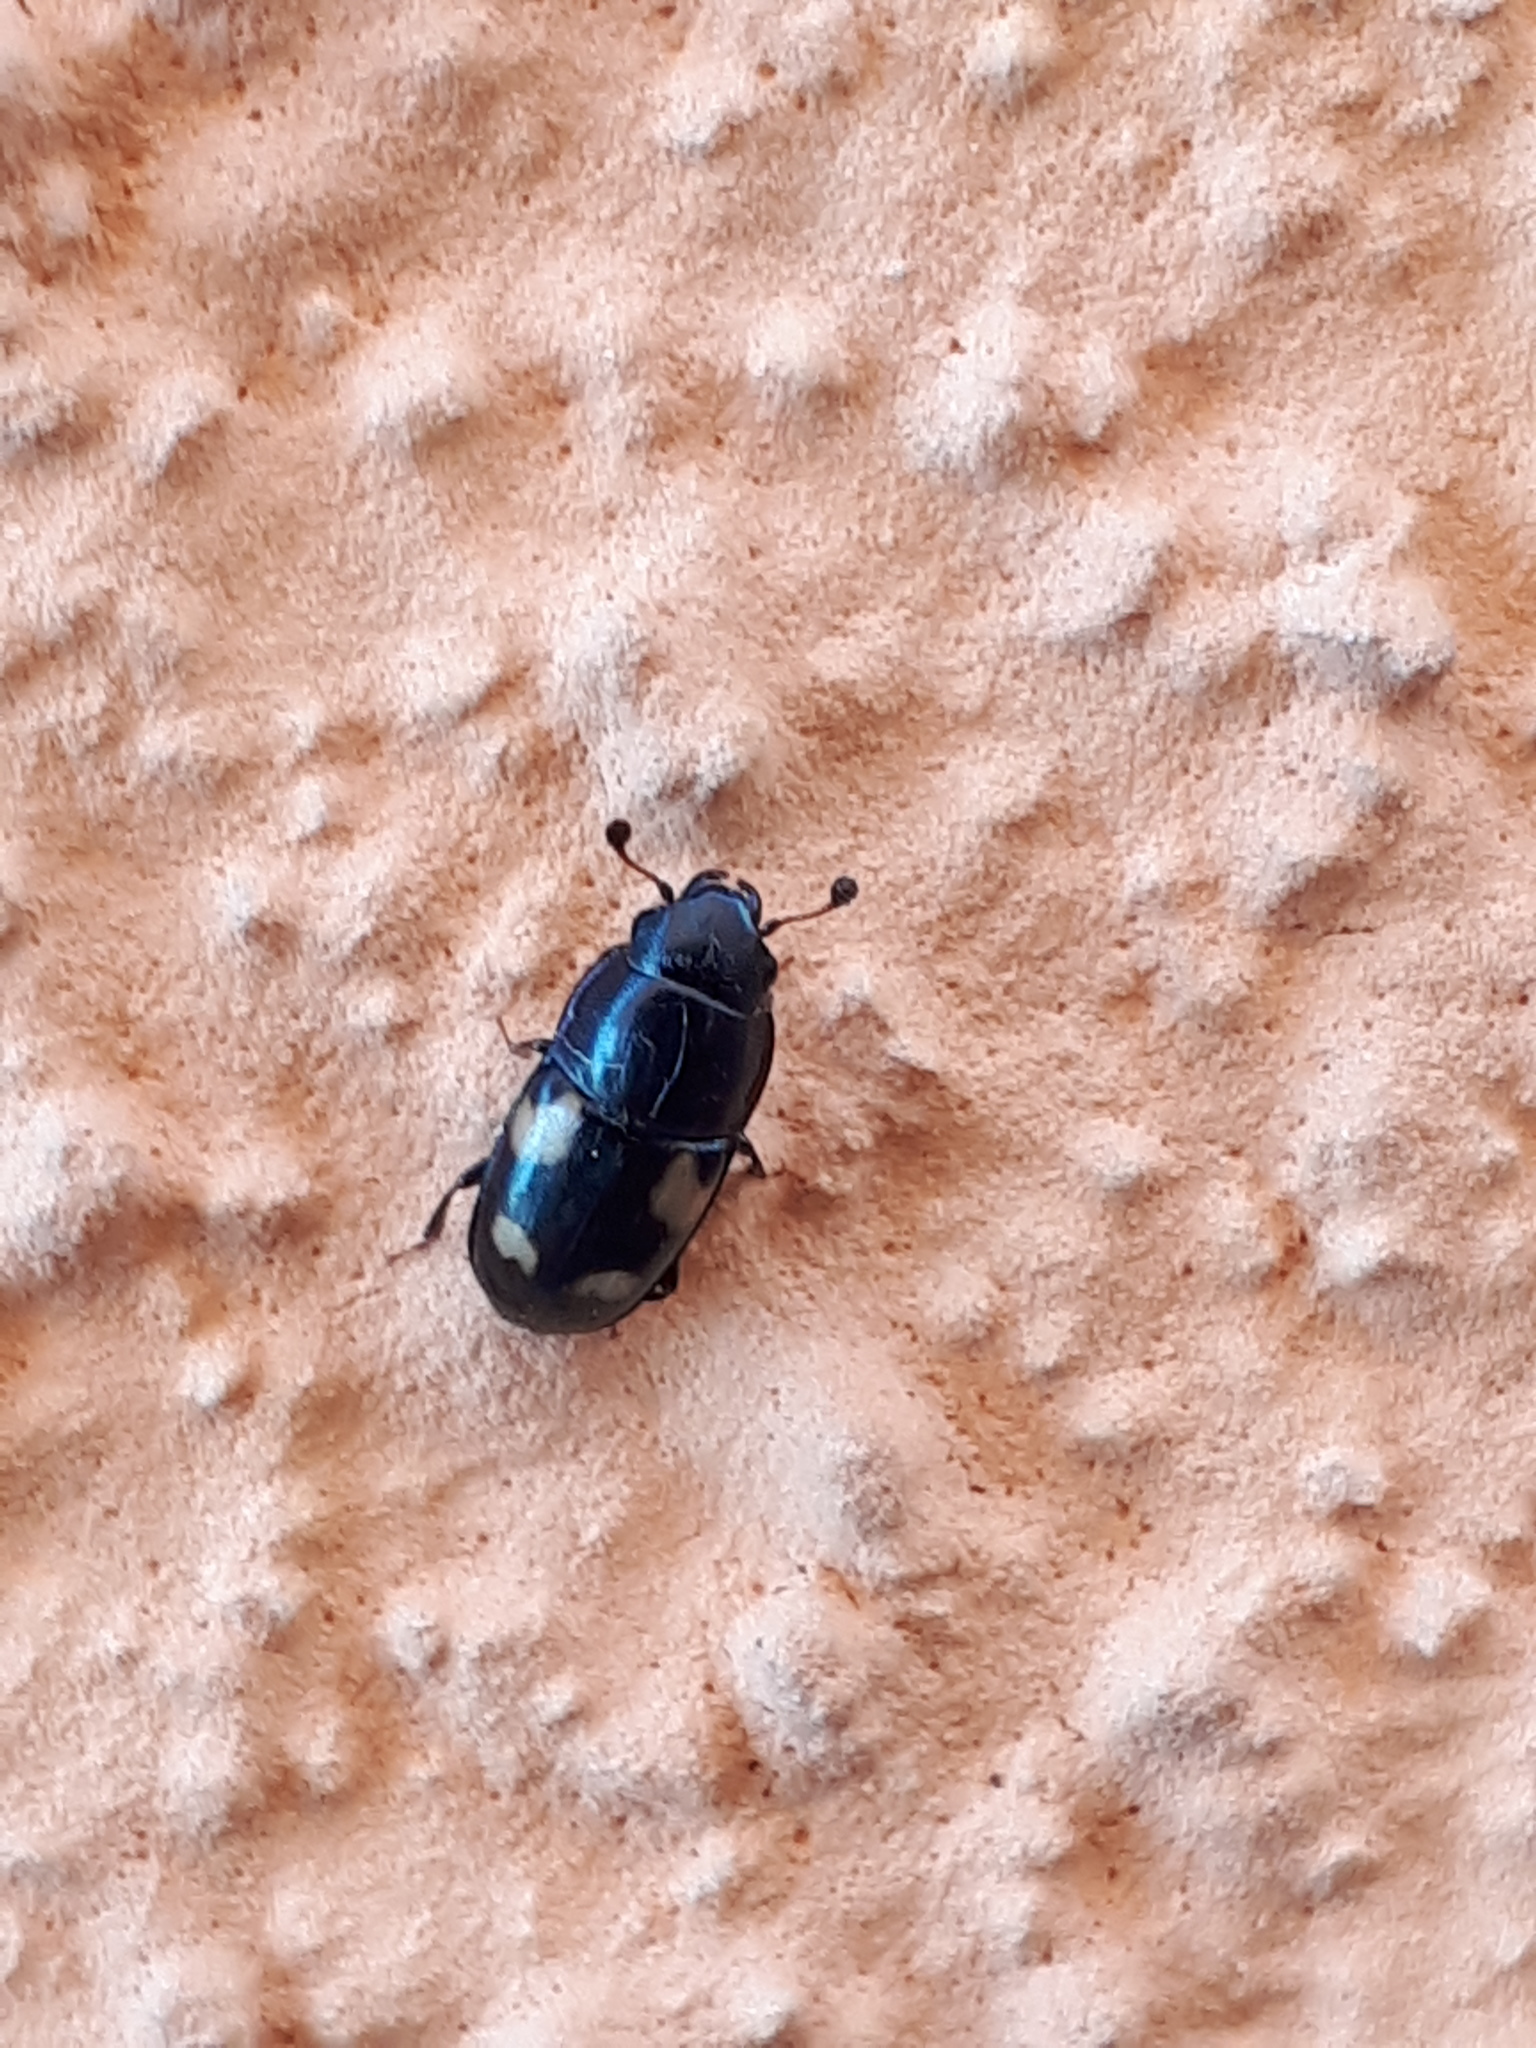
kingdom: Animalia
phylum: Arthropoda
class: Insecta
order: Coleoptera
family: Nitidulidae
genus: Glischrochilus
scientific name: Glischrochilus quadrisignatus
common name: Picnic beetle
